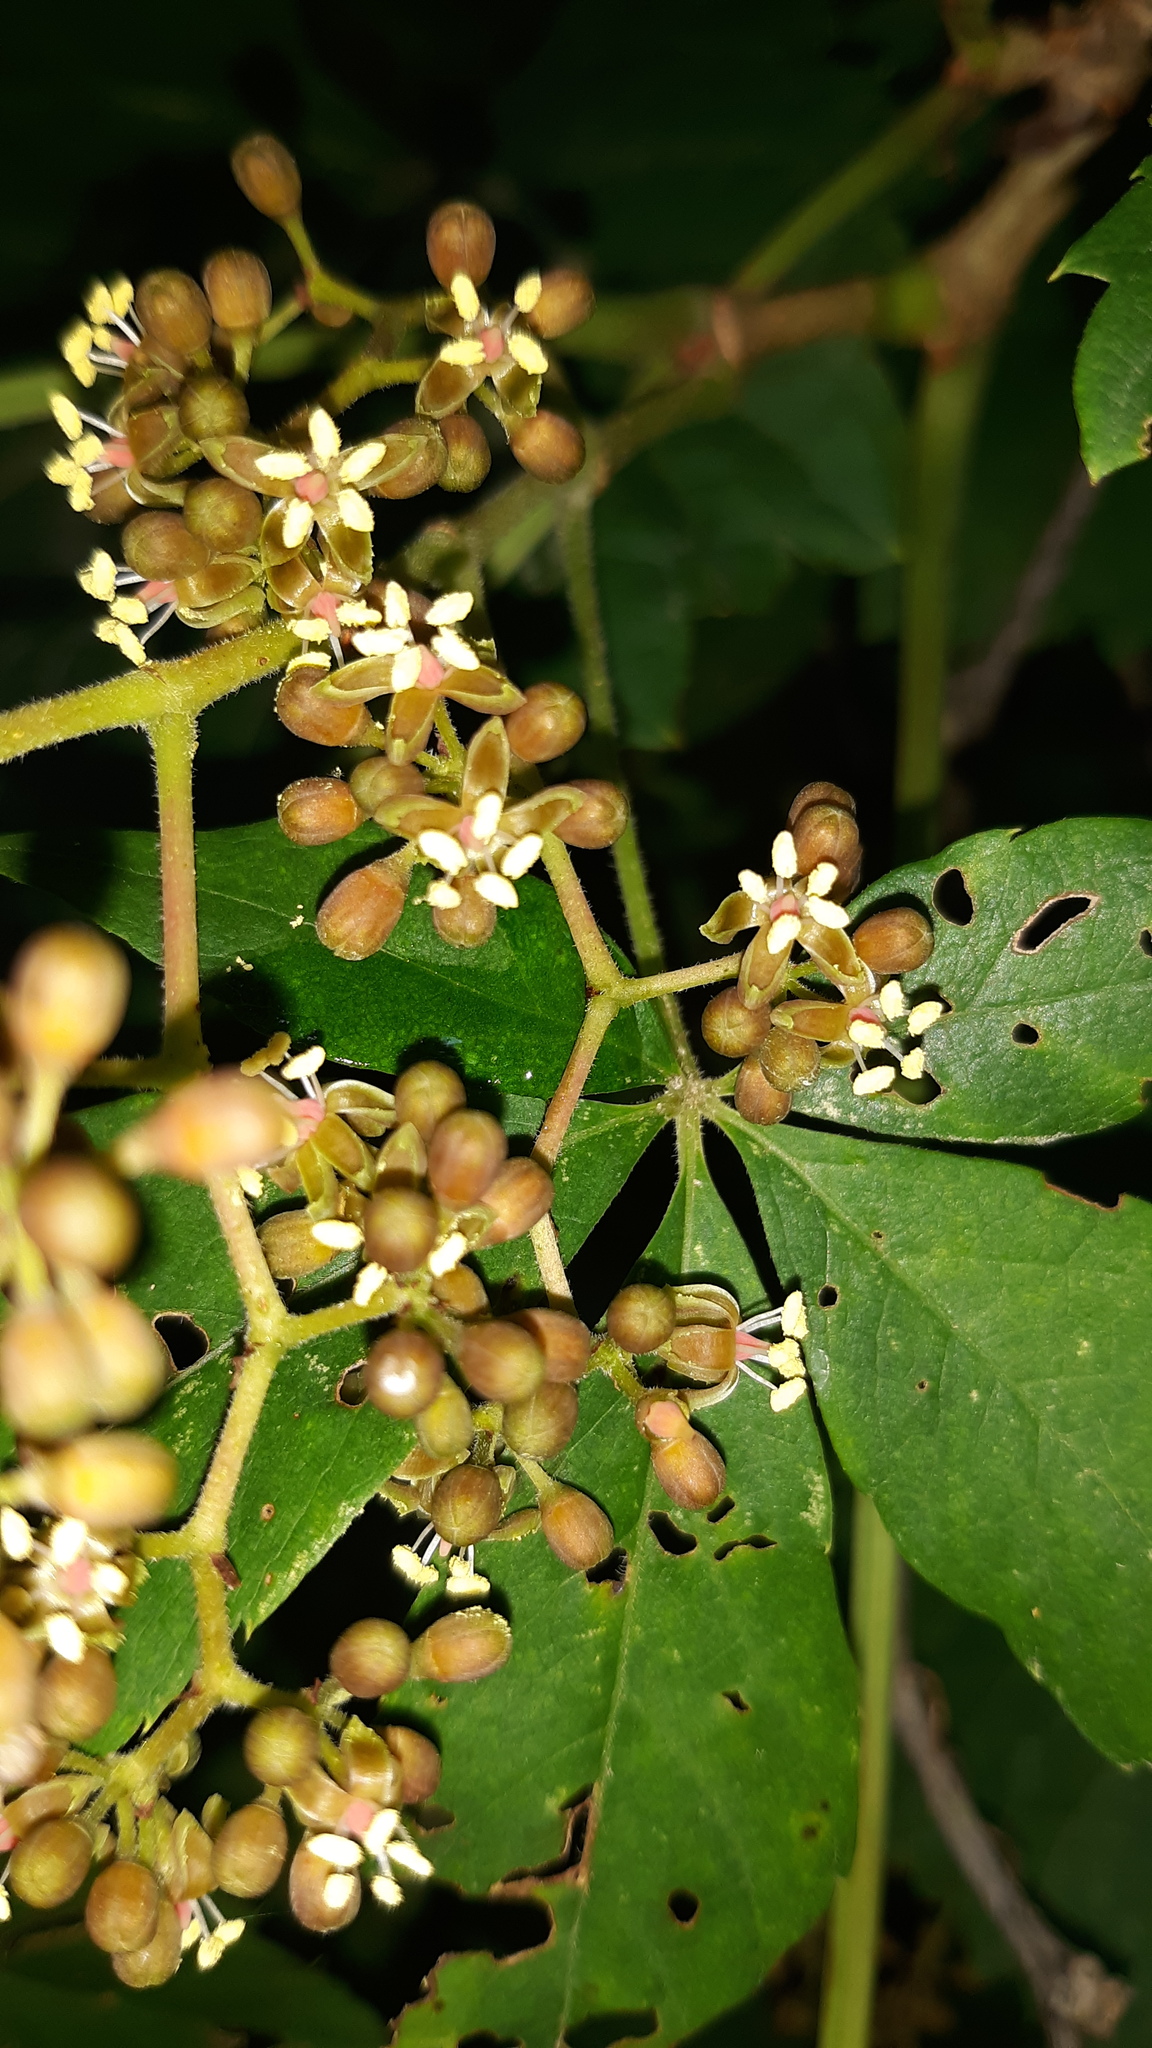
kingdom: Plantae
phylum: Tracheophyta
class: Magnoliopsida
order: Vitales
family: Vitaceae
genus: Parthenocissus
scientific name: Parthenocissus quinquefolia
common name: Virginia-creeper
